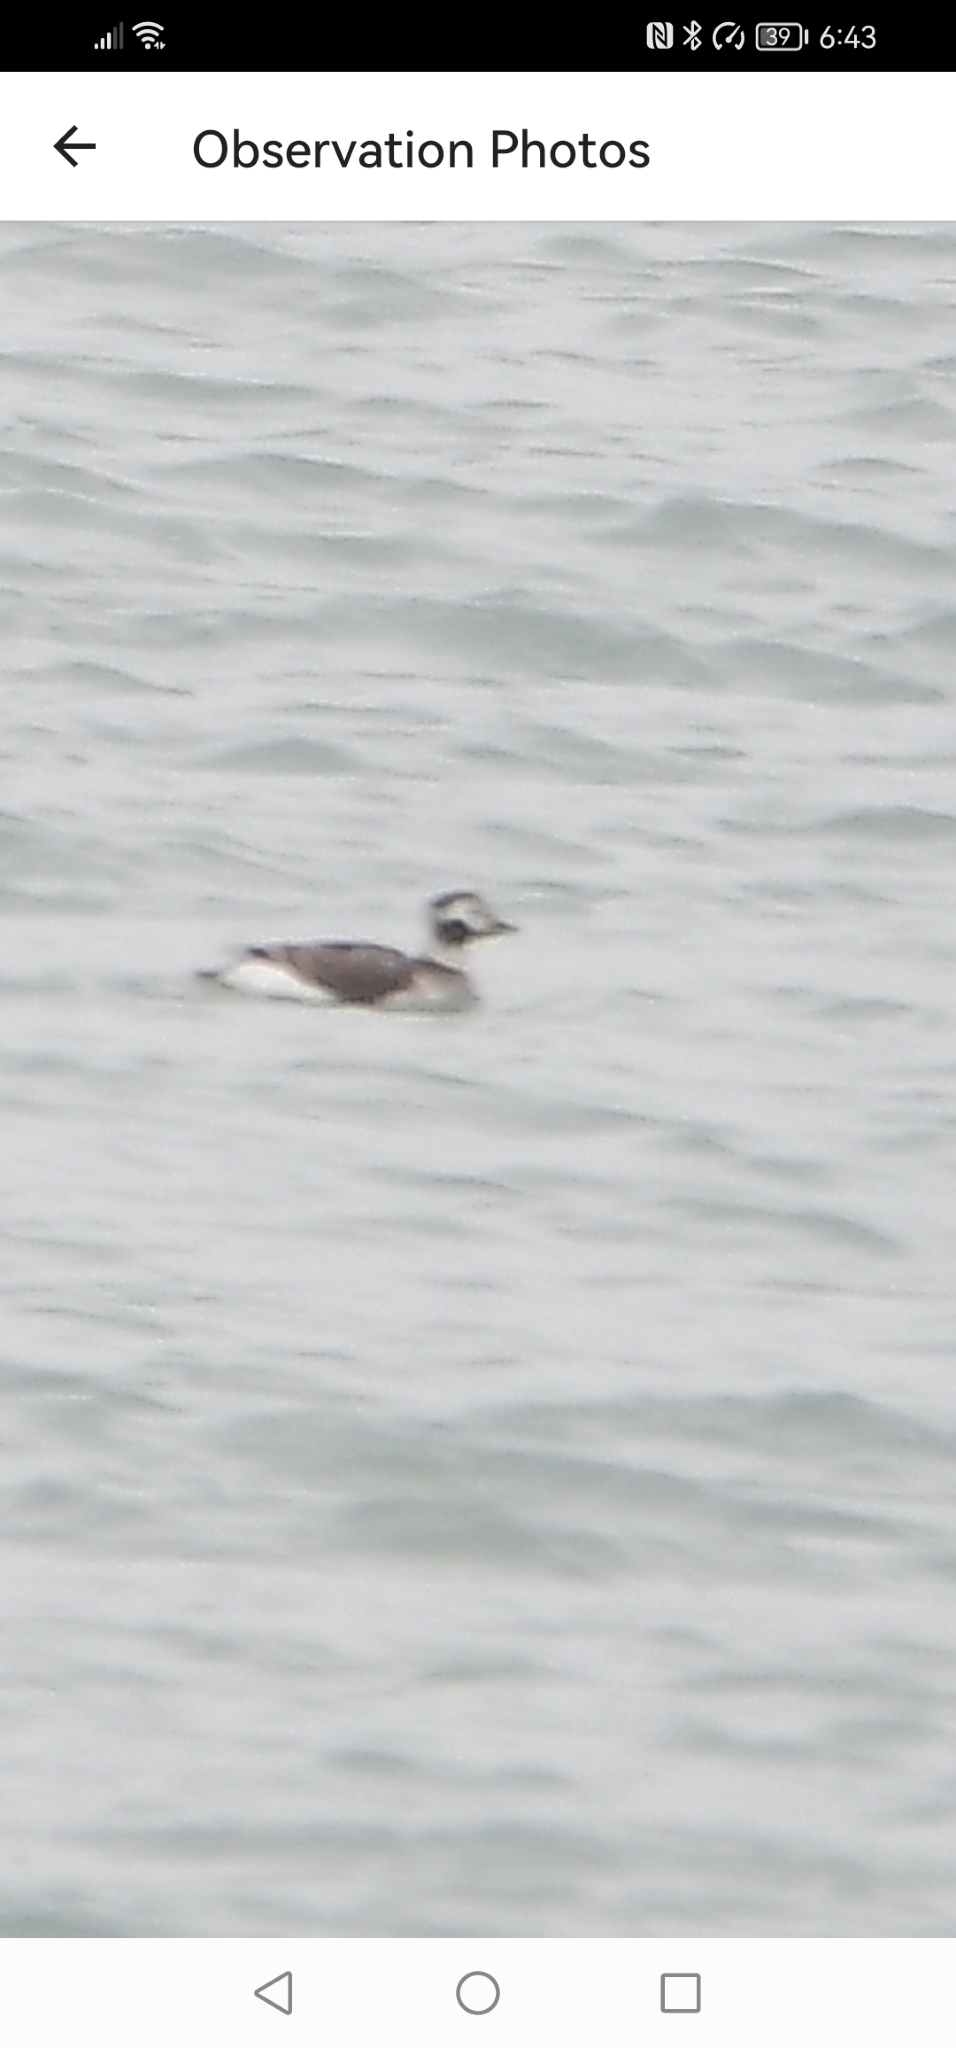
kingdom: Animalia
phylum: Chordata
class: Aves
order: Anseriformes
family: Anatidae
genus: Clangula
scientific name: Clangula hyemalis
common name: Long-tailed duck
